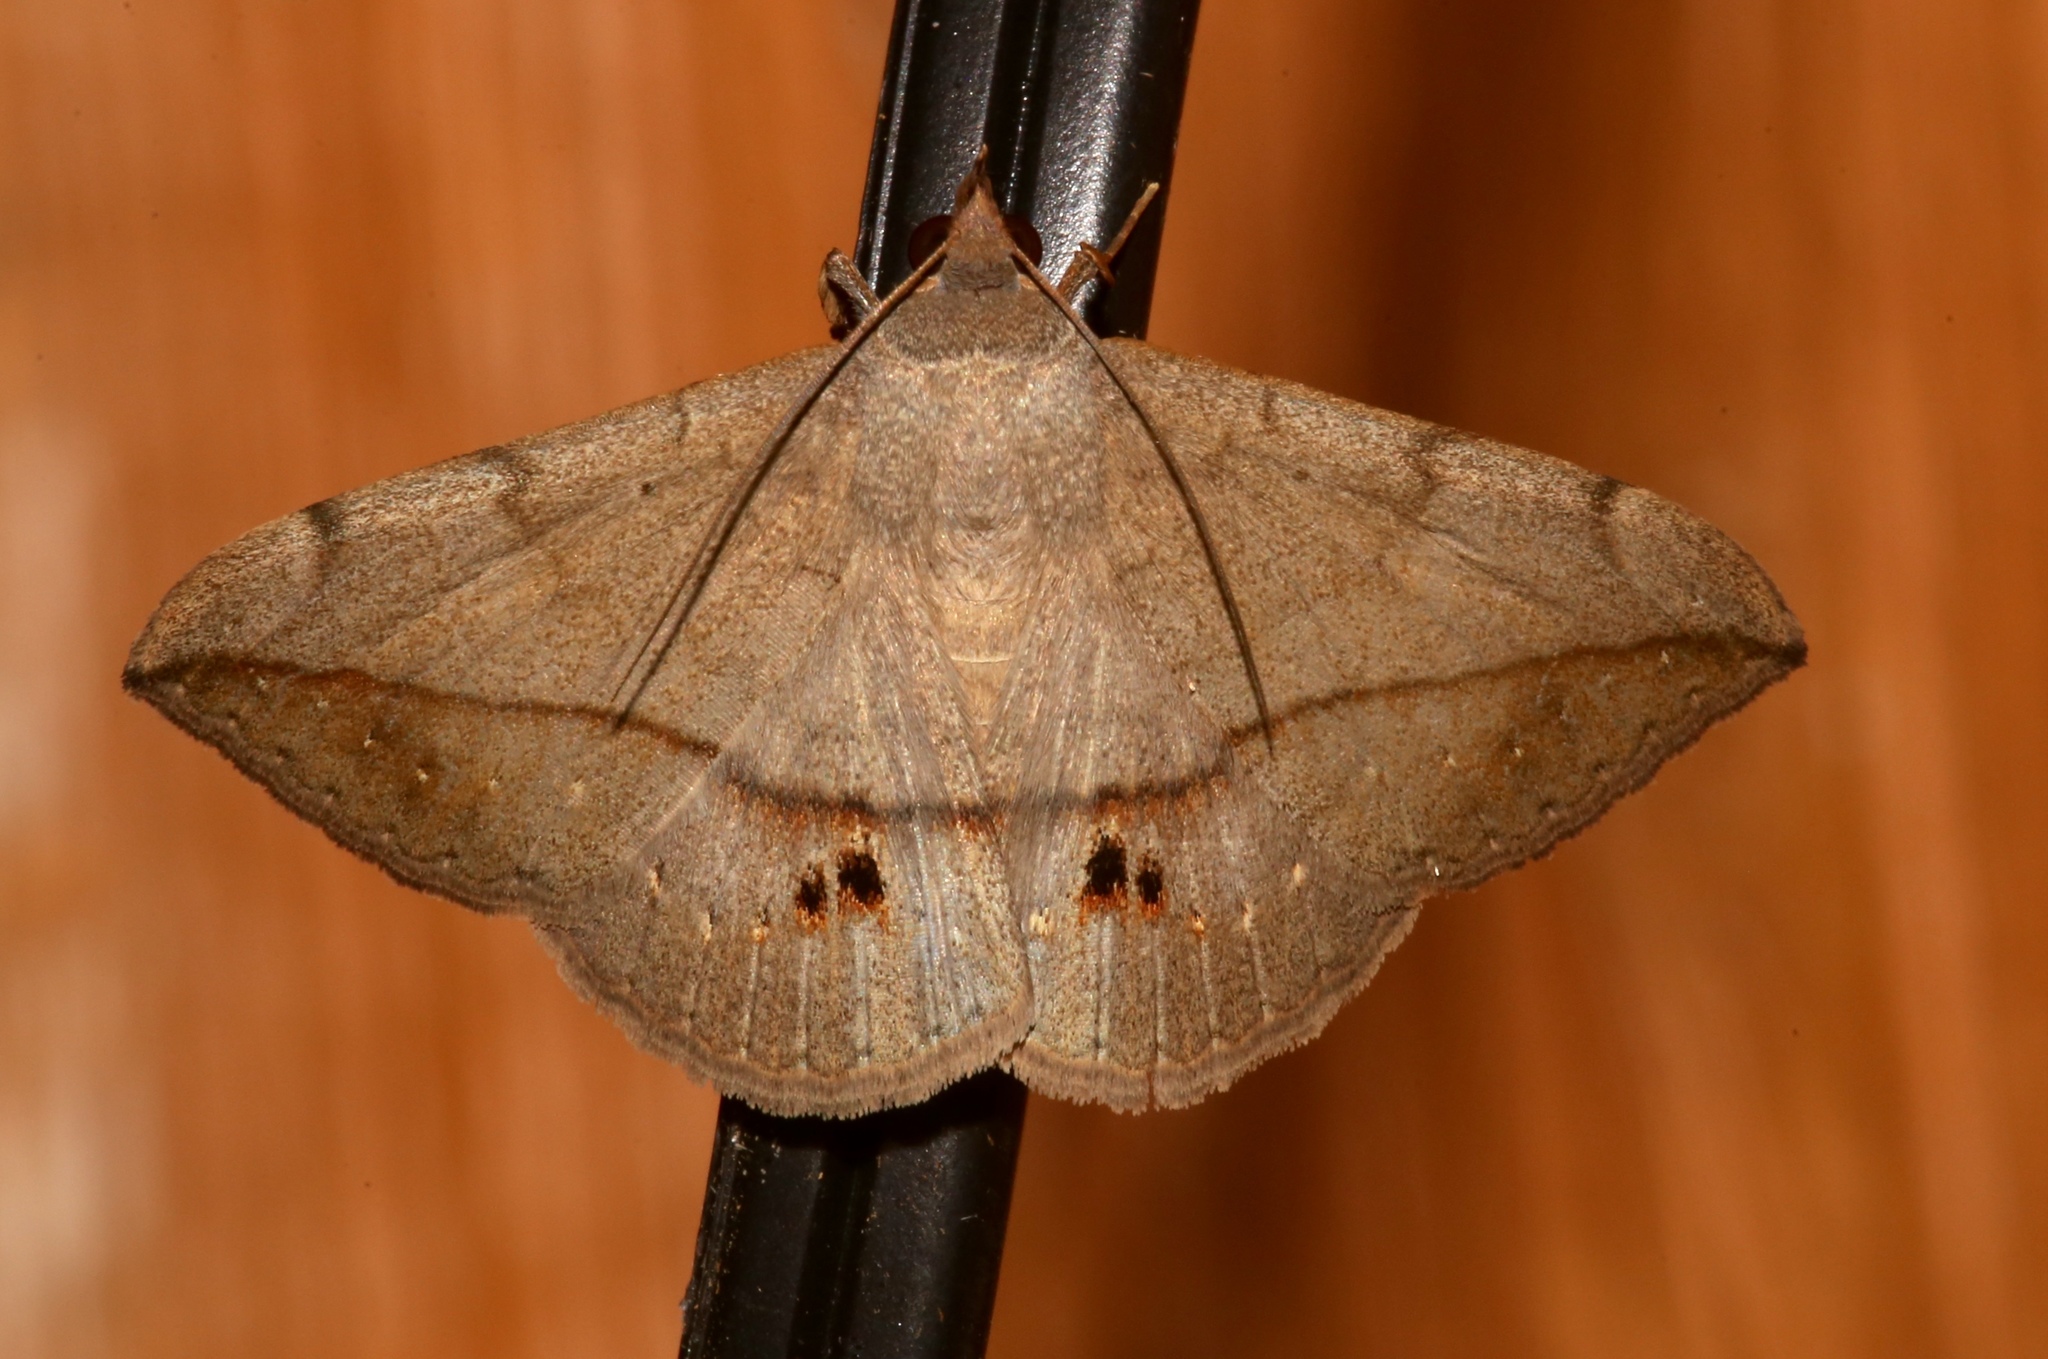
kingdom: Animalia
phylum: Arthropoda
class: Insecta
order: Lepidoptera
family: Erebidae
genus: Anticarsia
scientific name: Anticarsia gemmatalis
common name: Cutworm moth
